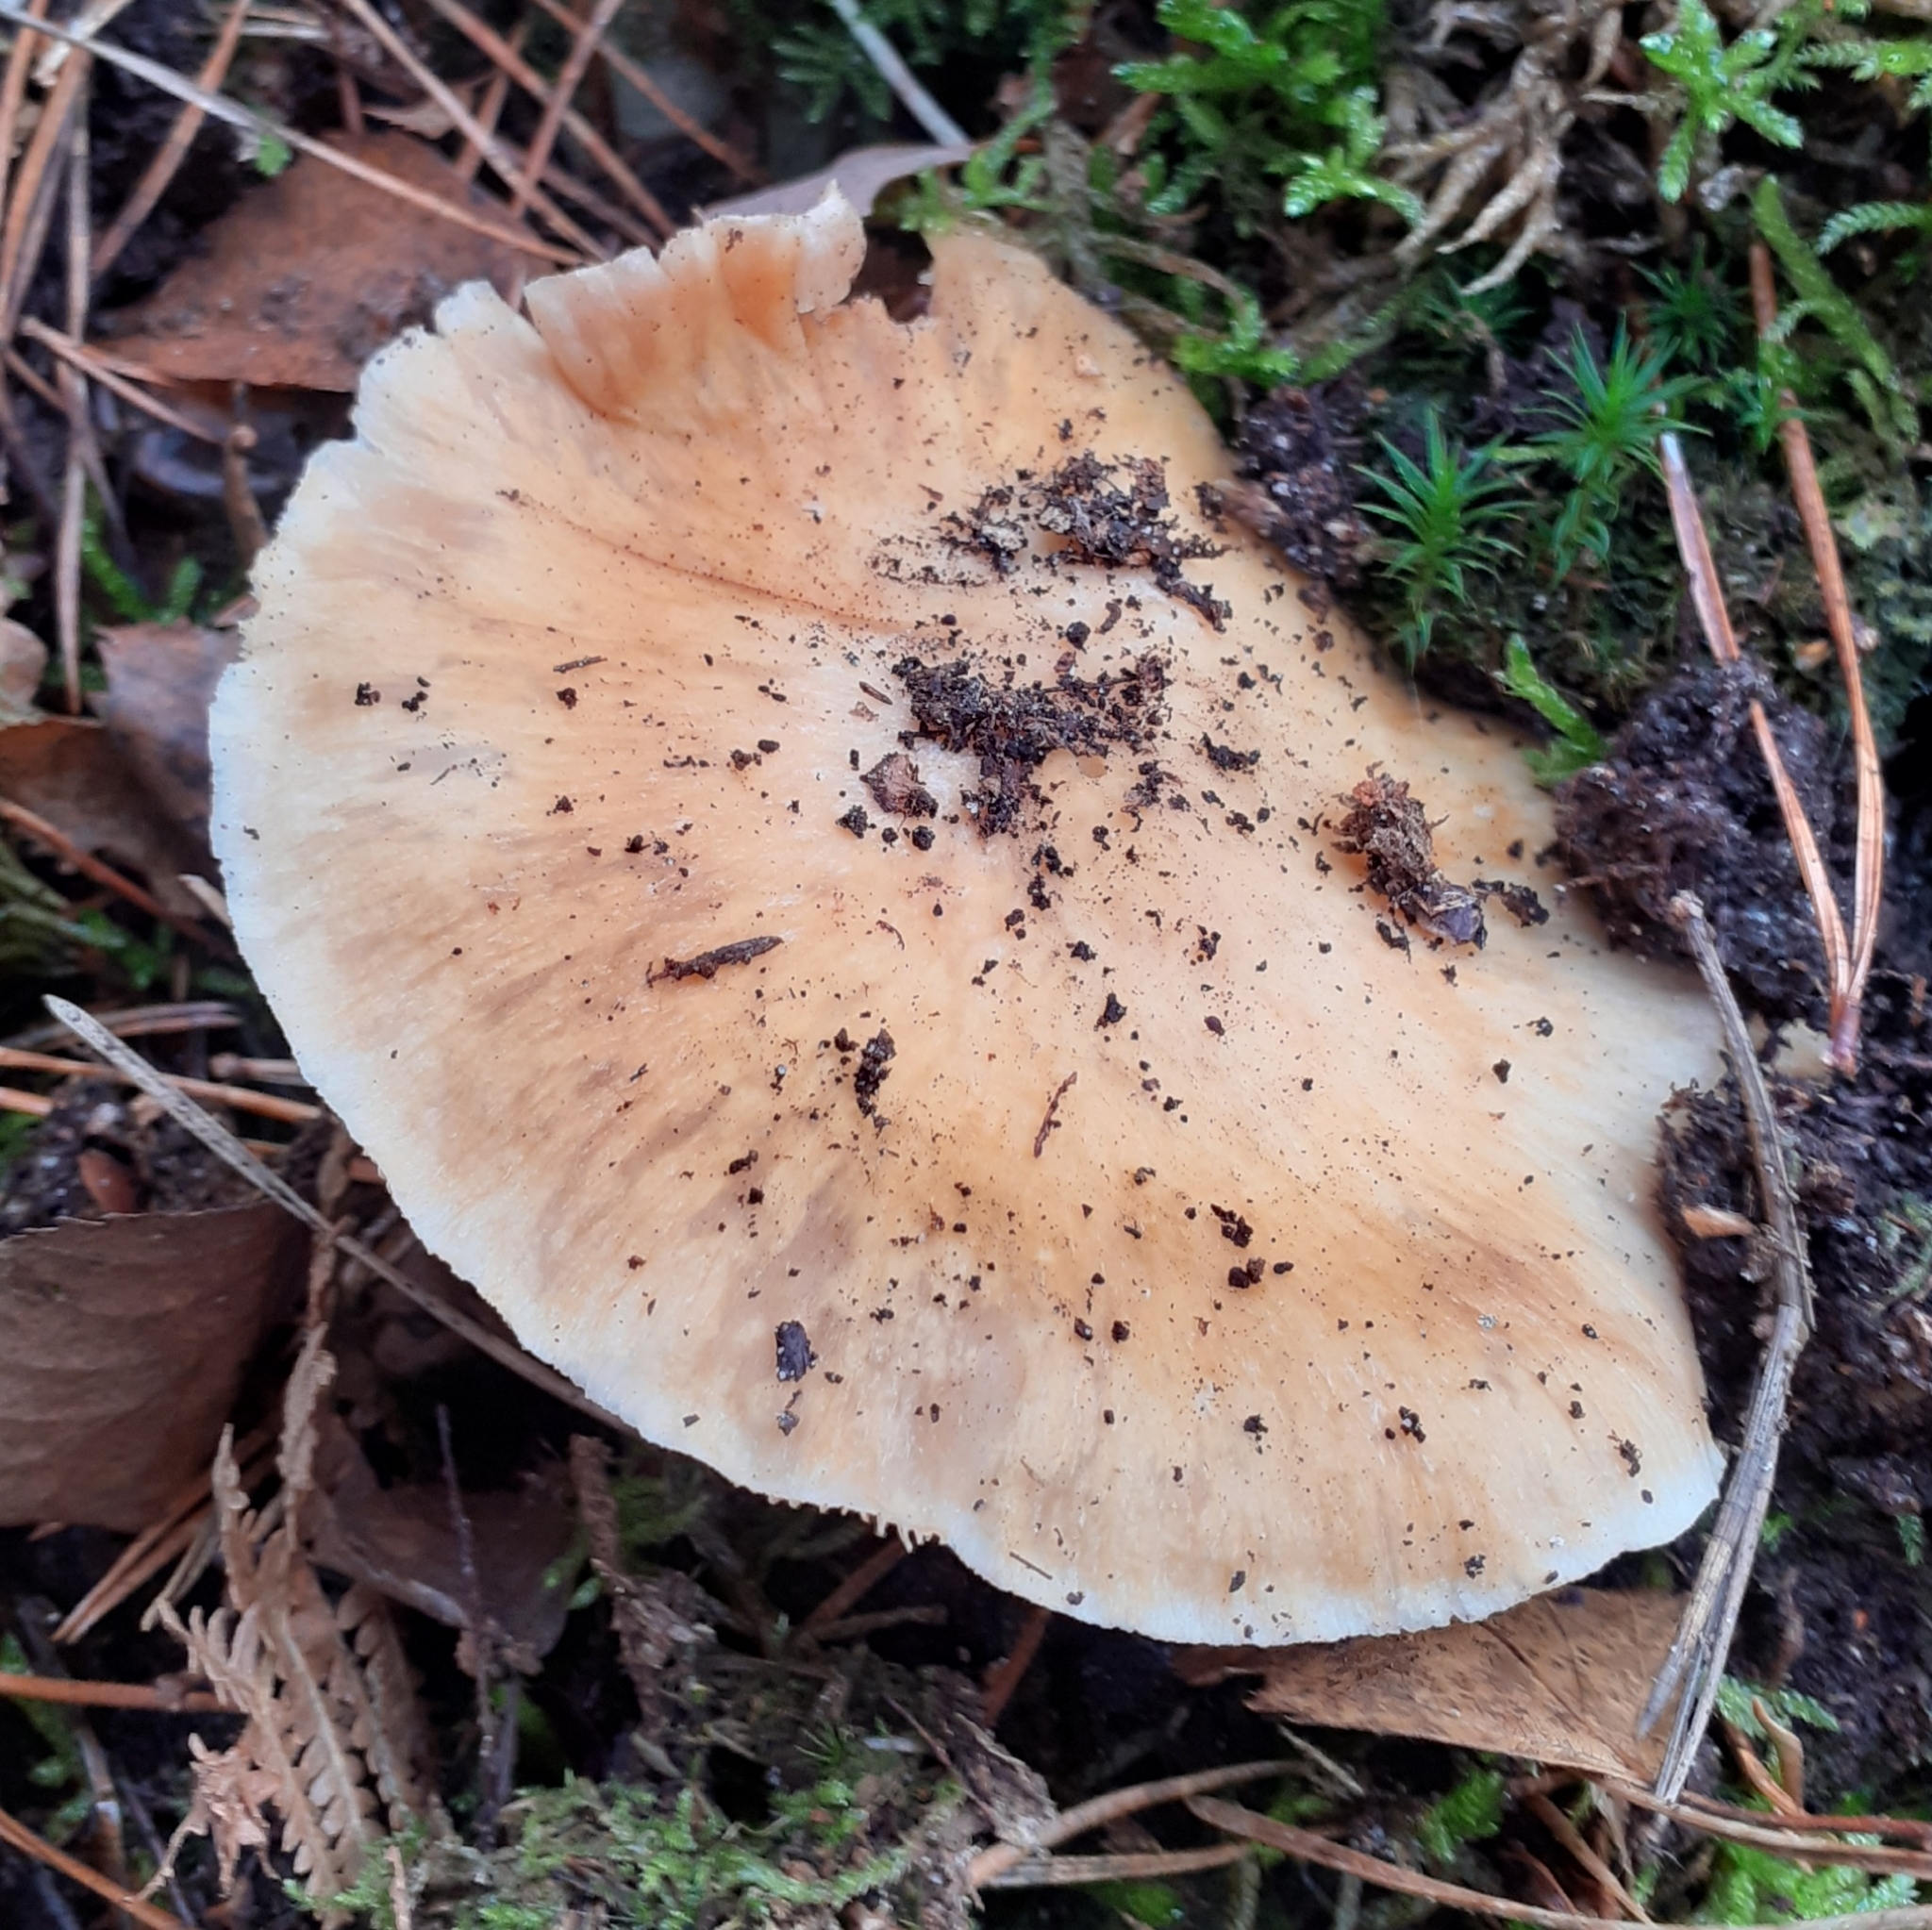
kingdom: Fungi
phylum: Basidiomycota
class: Agaricomycetes
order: Agaricales
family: Cortinariaceae
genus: Cortinarius
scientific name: Cortinarius caperatus
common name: The gypsy
